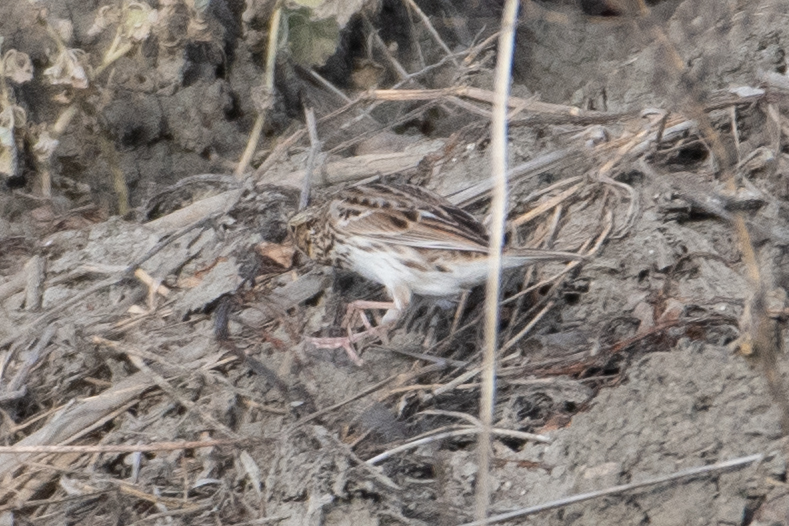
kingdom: Animalia
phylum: Chordata
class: Aves
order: Passeriformes
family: Passerellidae
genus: Passerculus
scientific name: Passerculus sandwichensis
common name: Savannah sparrow
